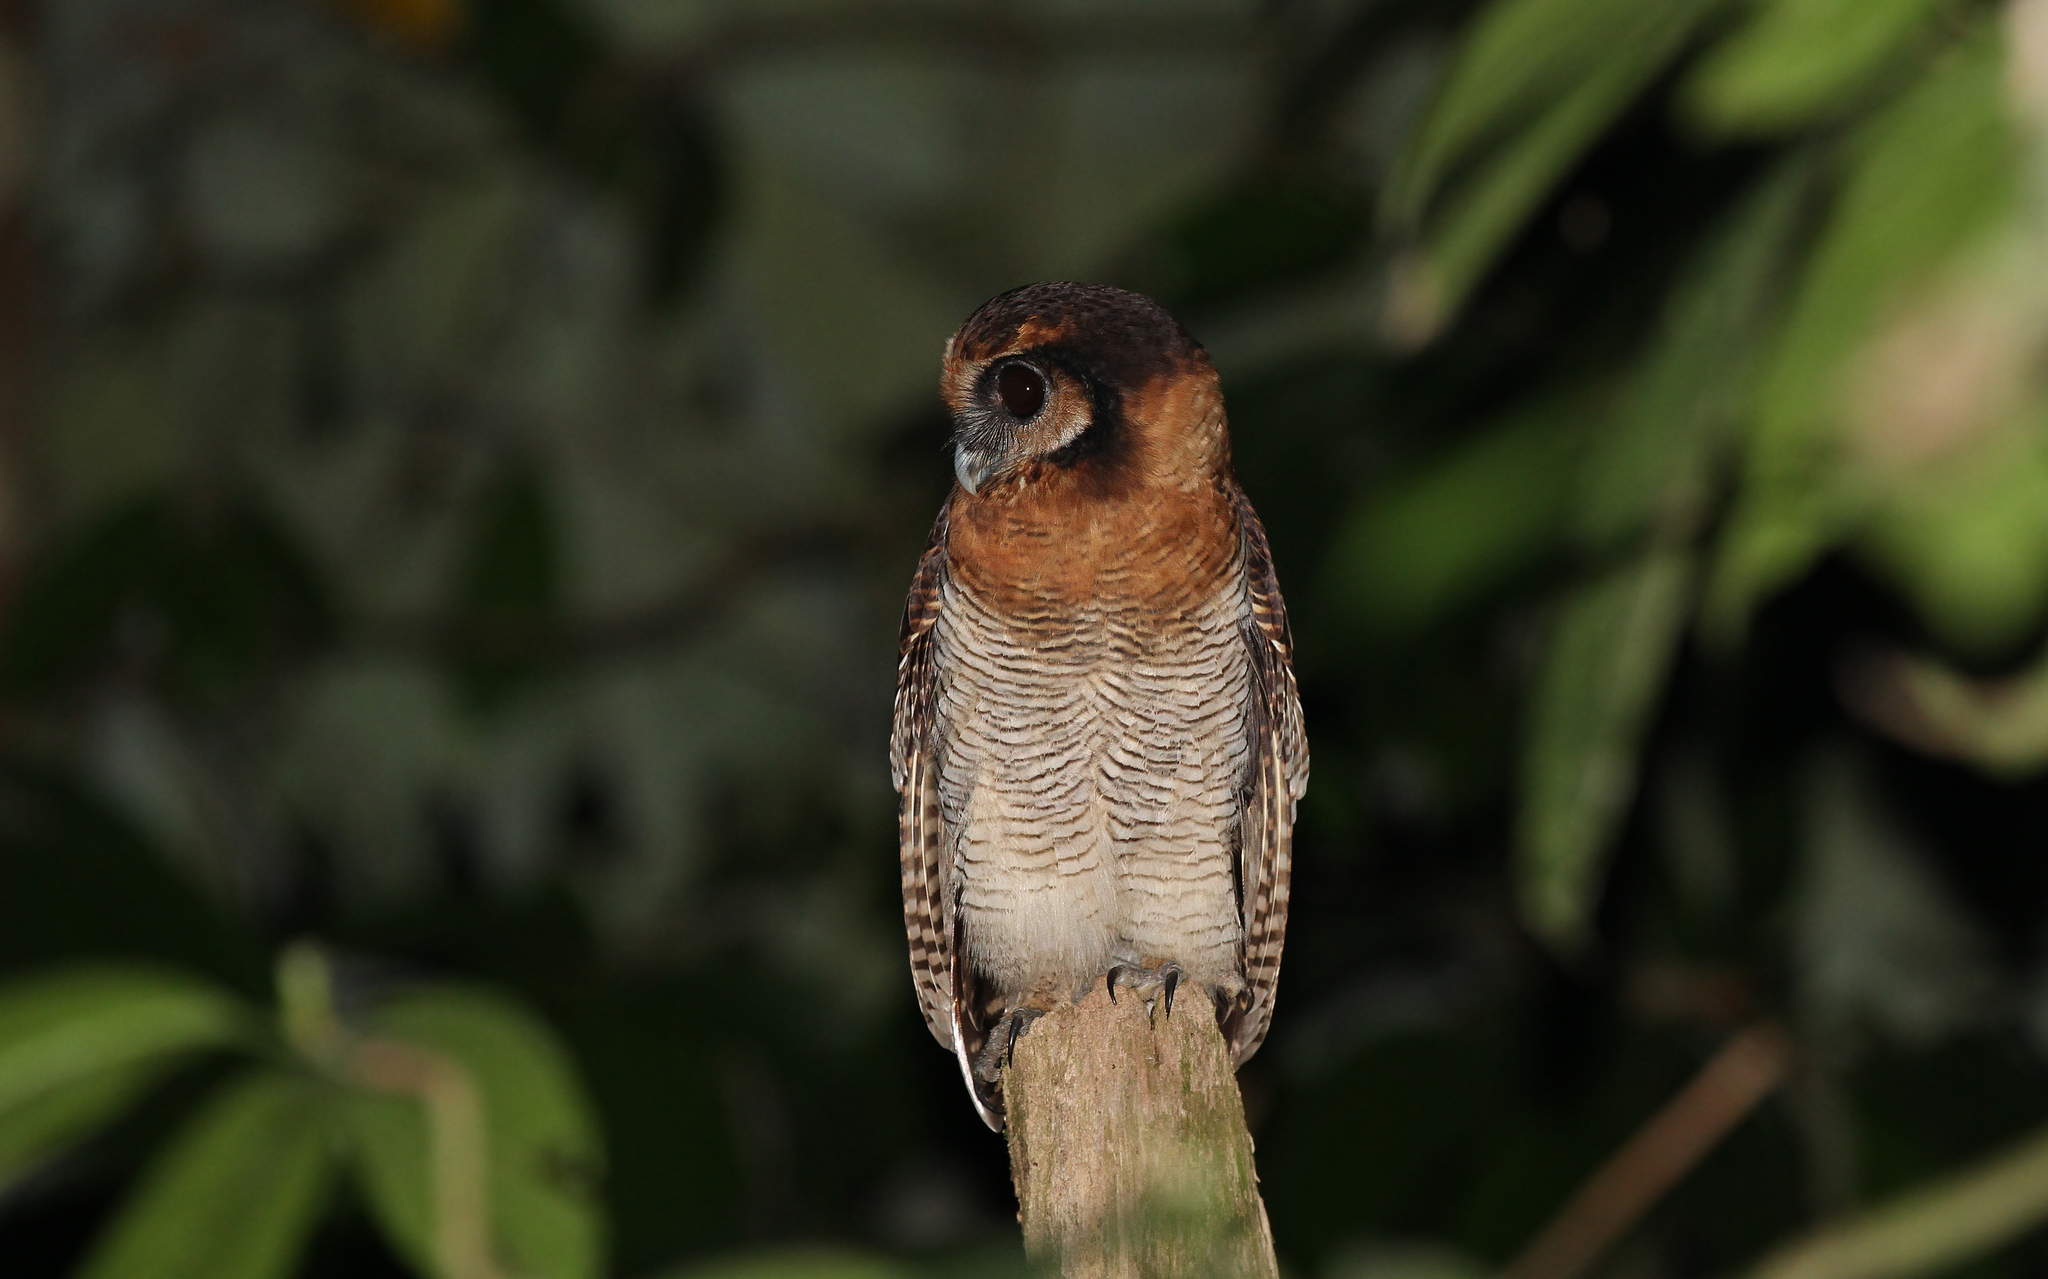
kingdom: Animalia
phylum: Chordata
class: Aves
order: Strigiformes
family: Strigidae
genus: Strix
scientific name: Strix leptogrammica
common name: Brown wood owl
